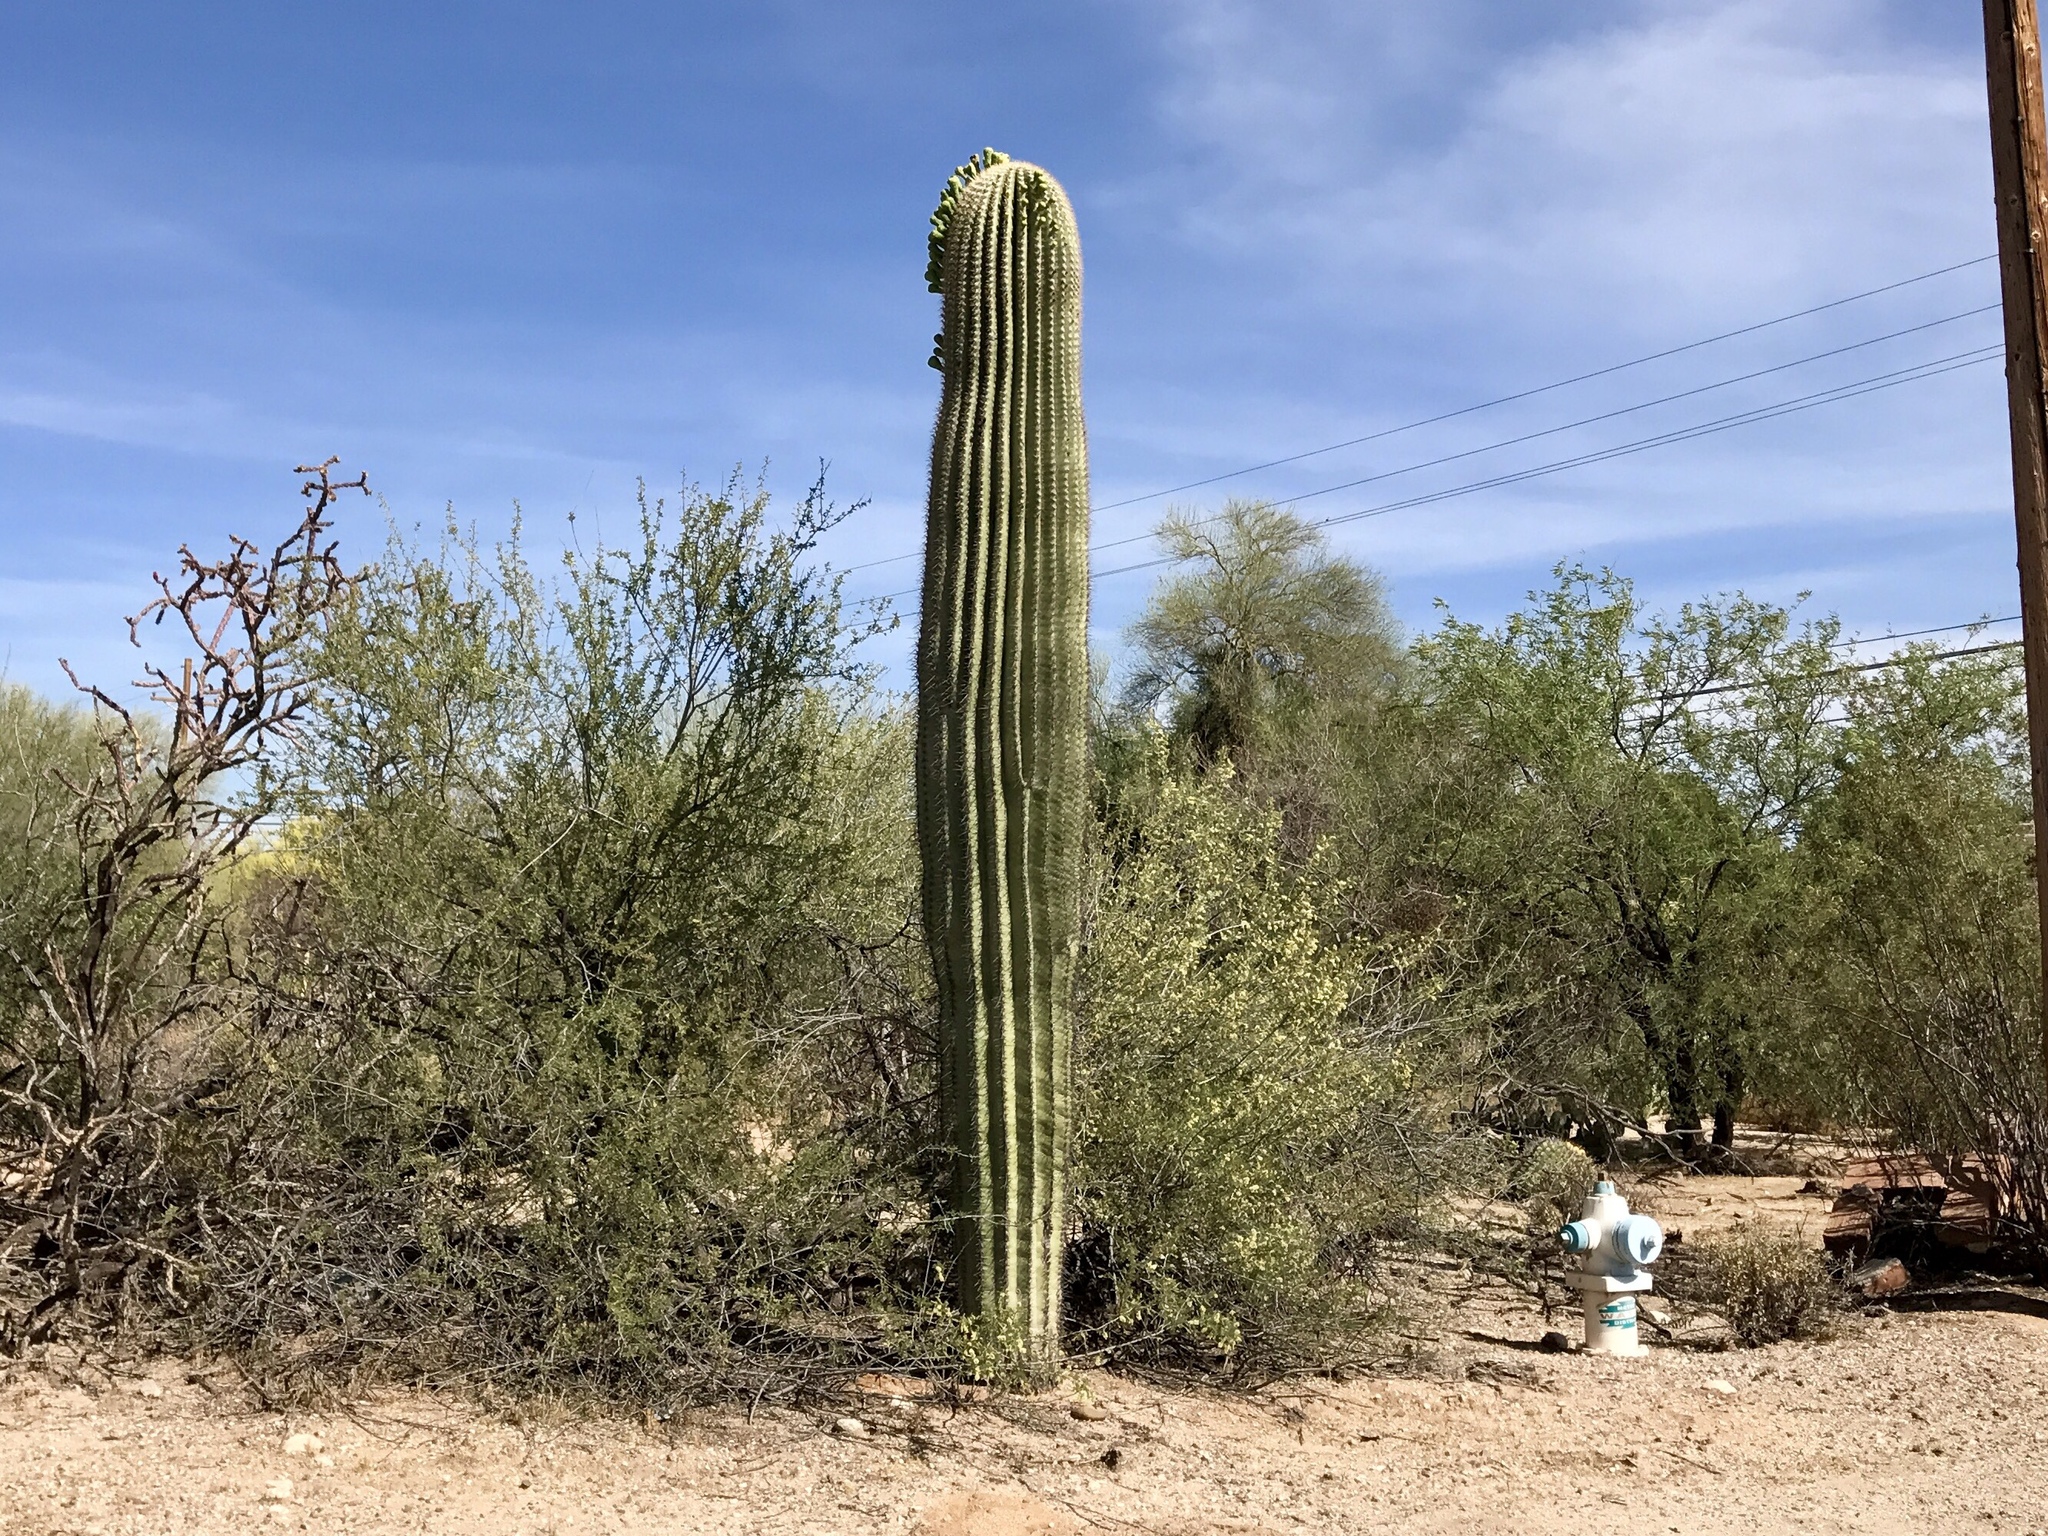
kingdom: Plantae
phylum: Tracheophyta
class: Magnoliopsida
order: Caryophyllales
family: Cactaceae
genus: Carnegiea
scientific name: Carnegiea gigantea
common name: Saguaro
